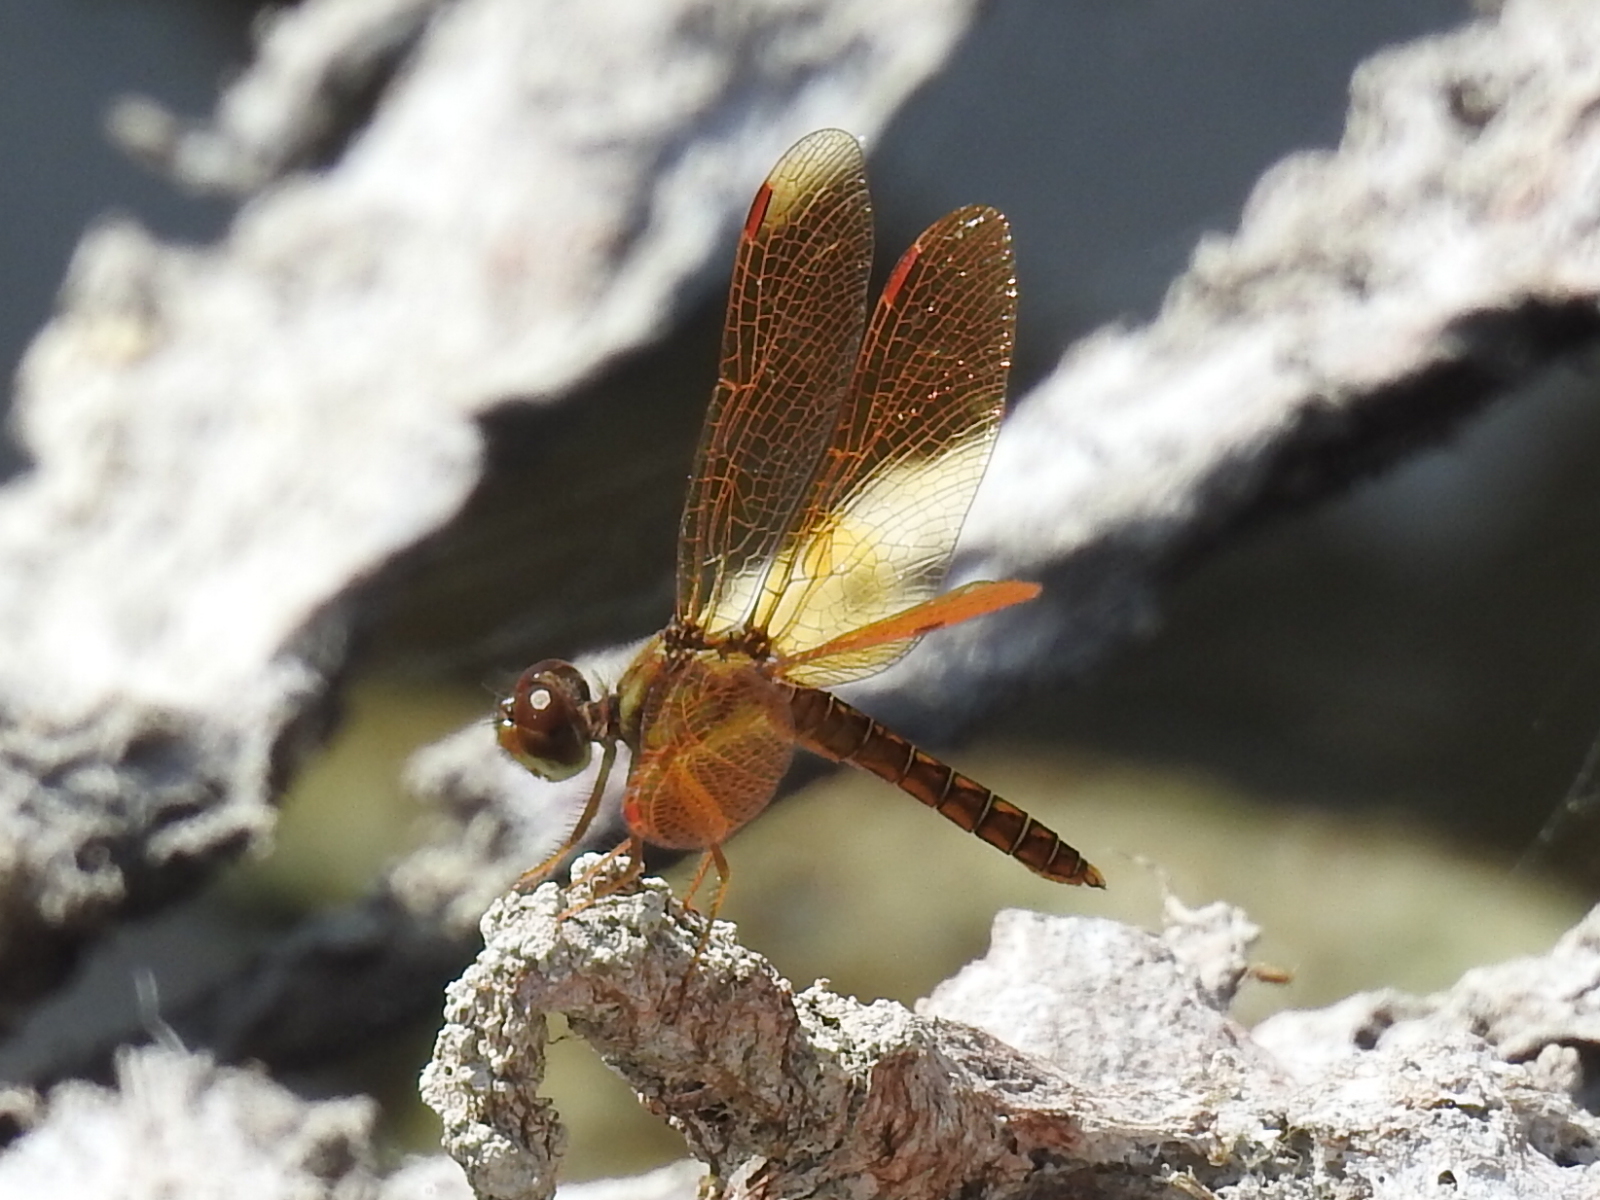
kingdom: Animalia
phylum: Arthropoda
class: Insecta
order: Odonata
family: Libellulidae
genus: Perithemis
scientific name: Perithemis tenera
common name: Eastern amberwing
